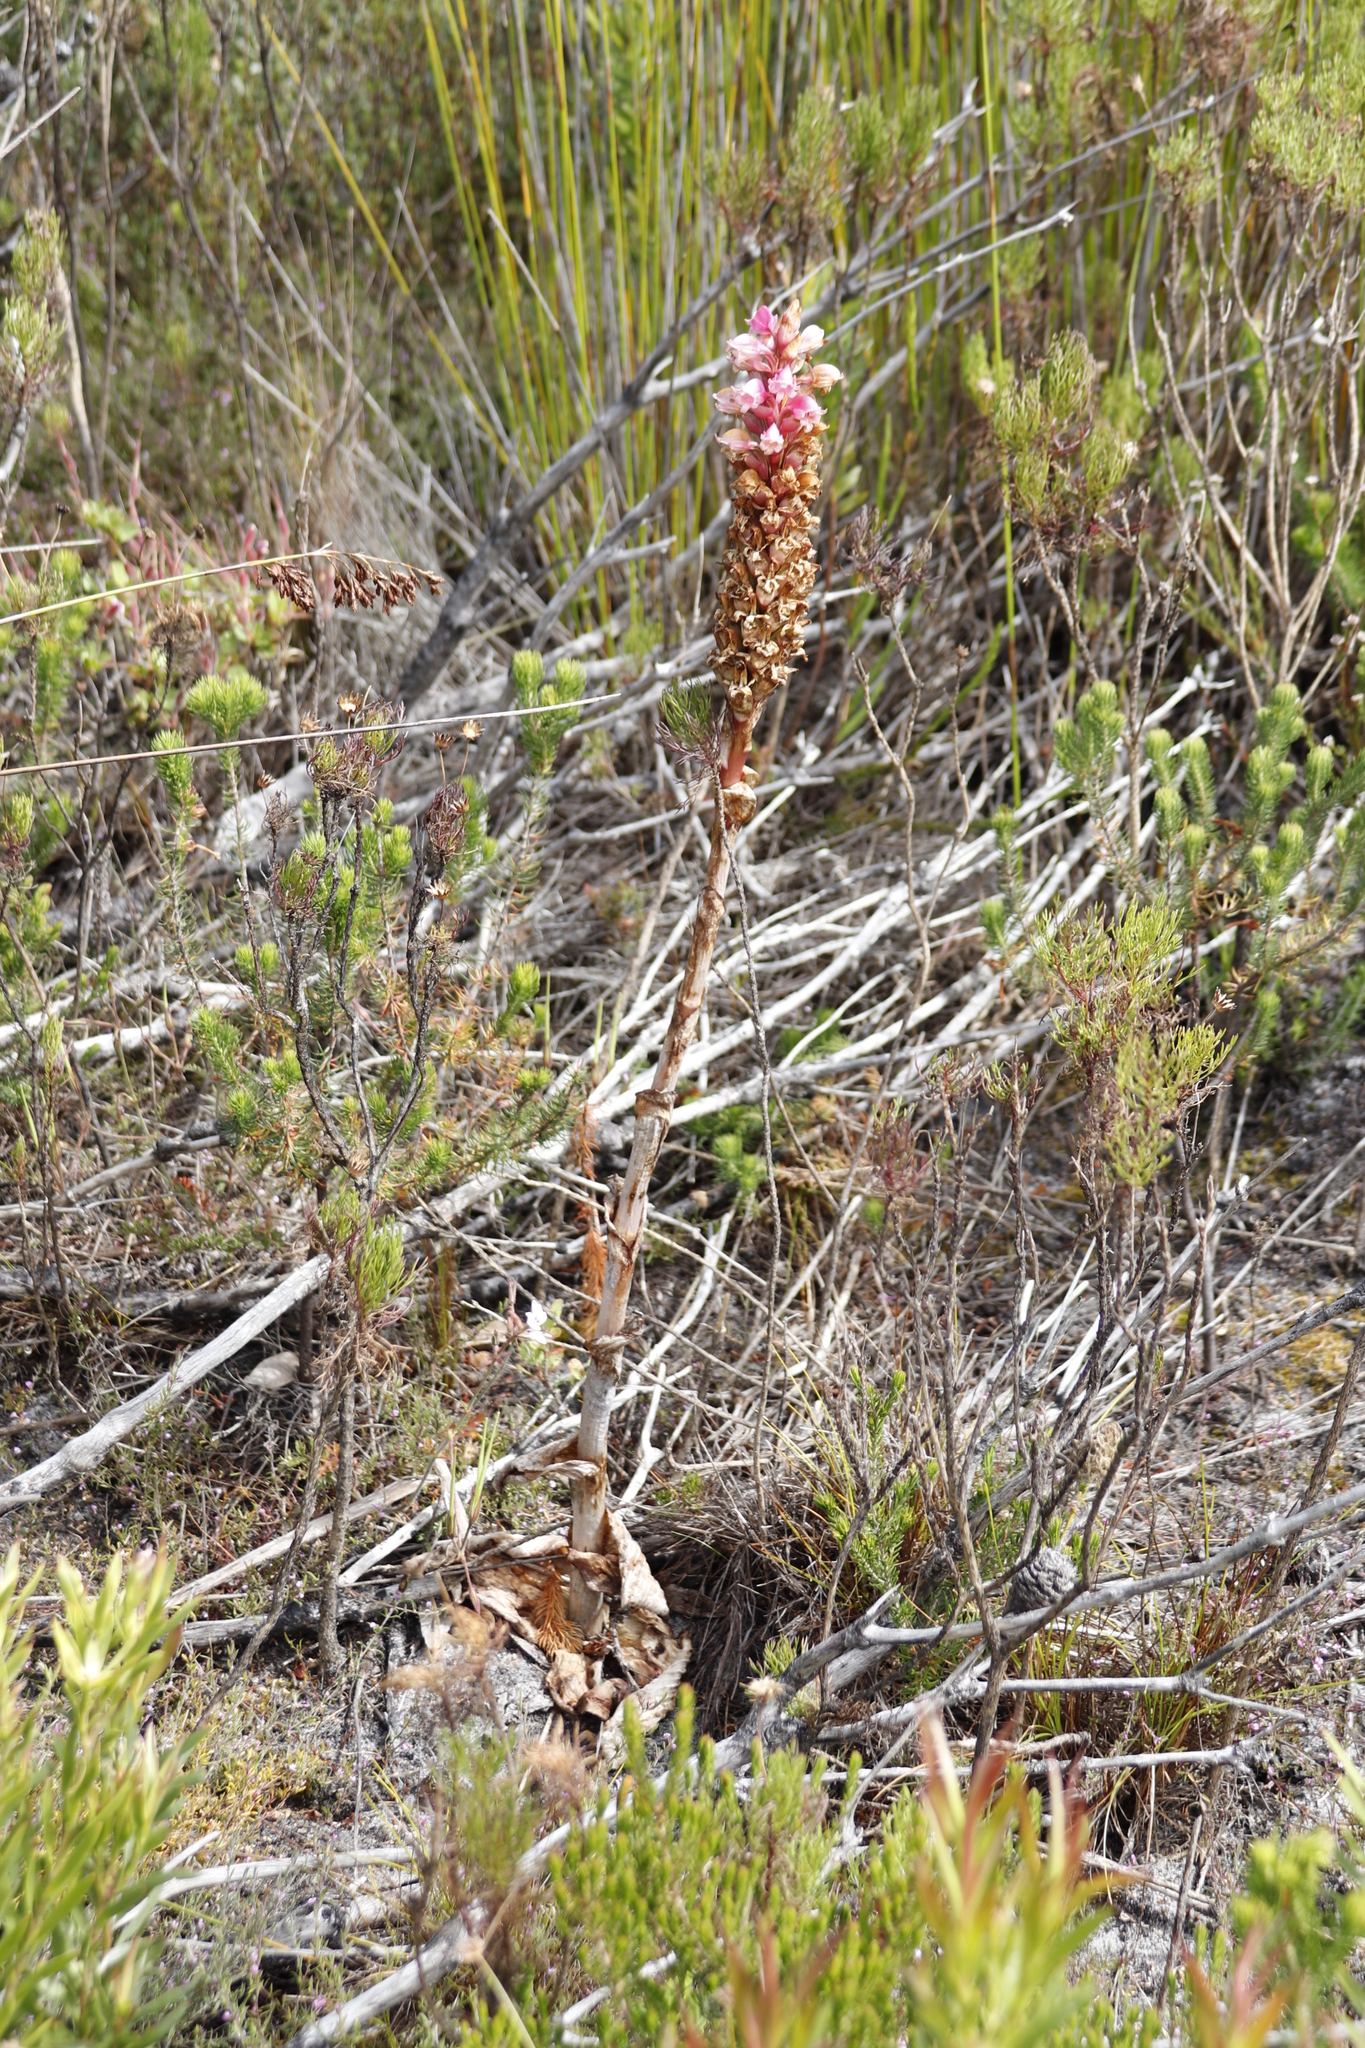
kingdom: Plantae
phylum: Tracheophyta
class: Liliopsida
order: Asparagales
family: Orchidaceae
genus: Satyrium
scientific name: Satyrium carneum
